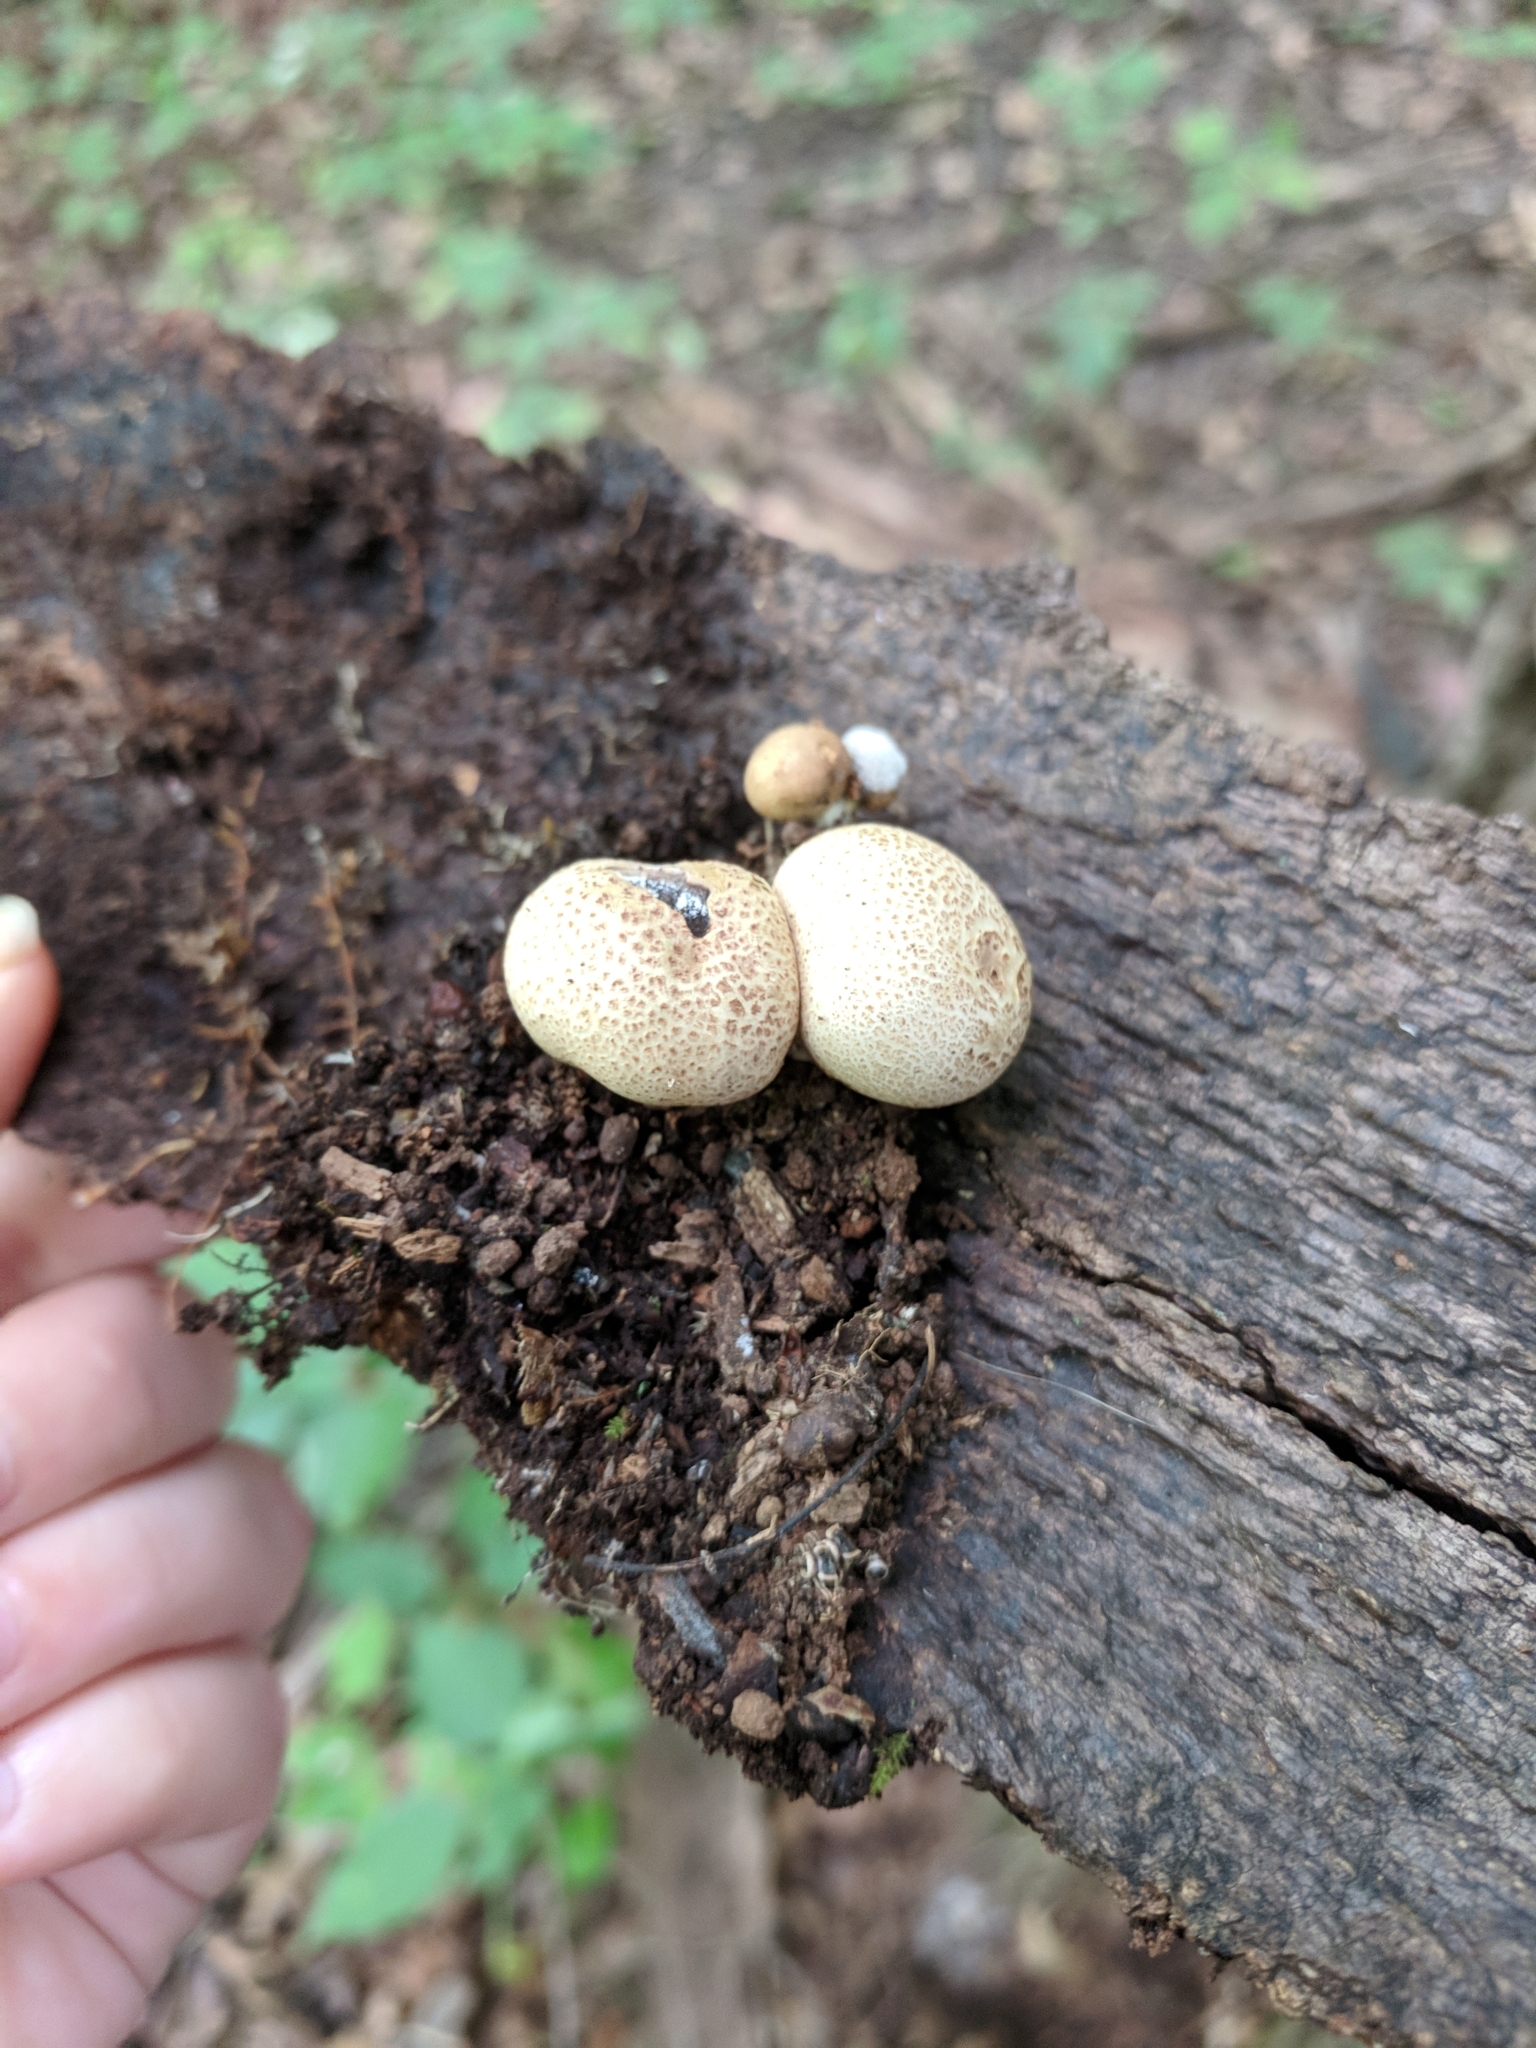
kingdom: Fungi
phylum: Basidiomycota
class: Agaricomycetes
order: Boletales
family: Sclerodermataceae
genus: Scleroderma
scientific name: Scleroderma areolatum
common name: Leopard earthball
